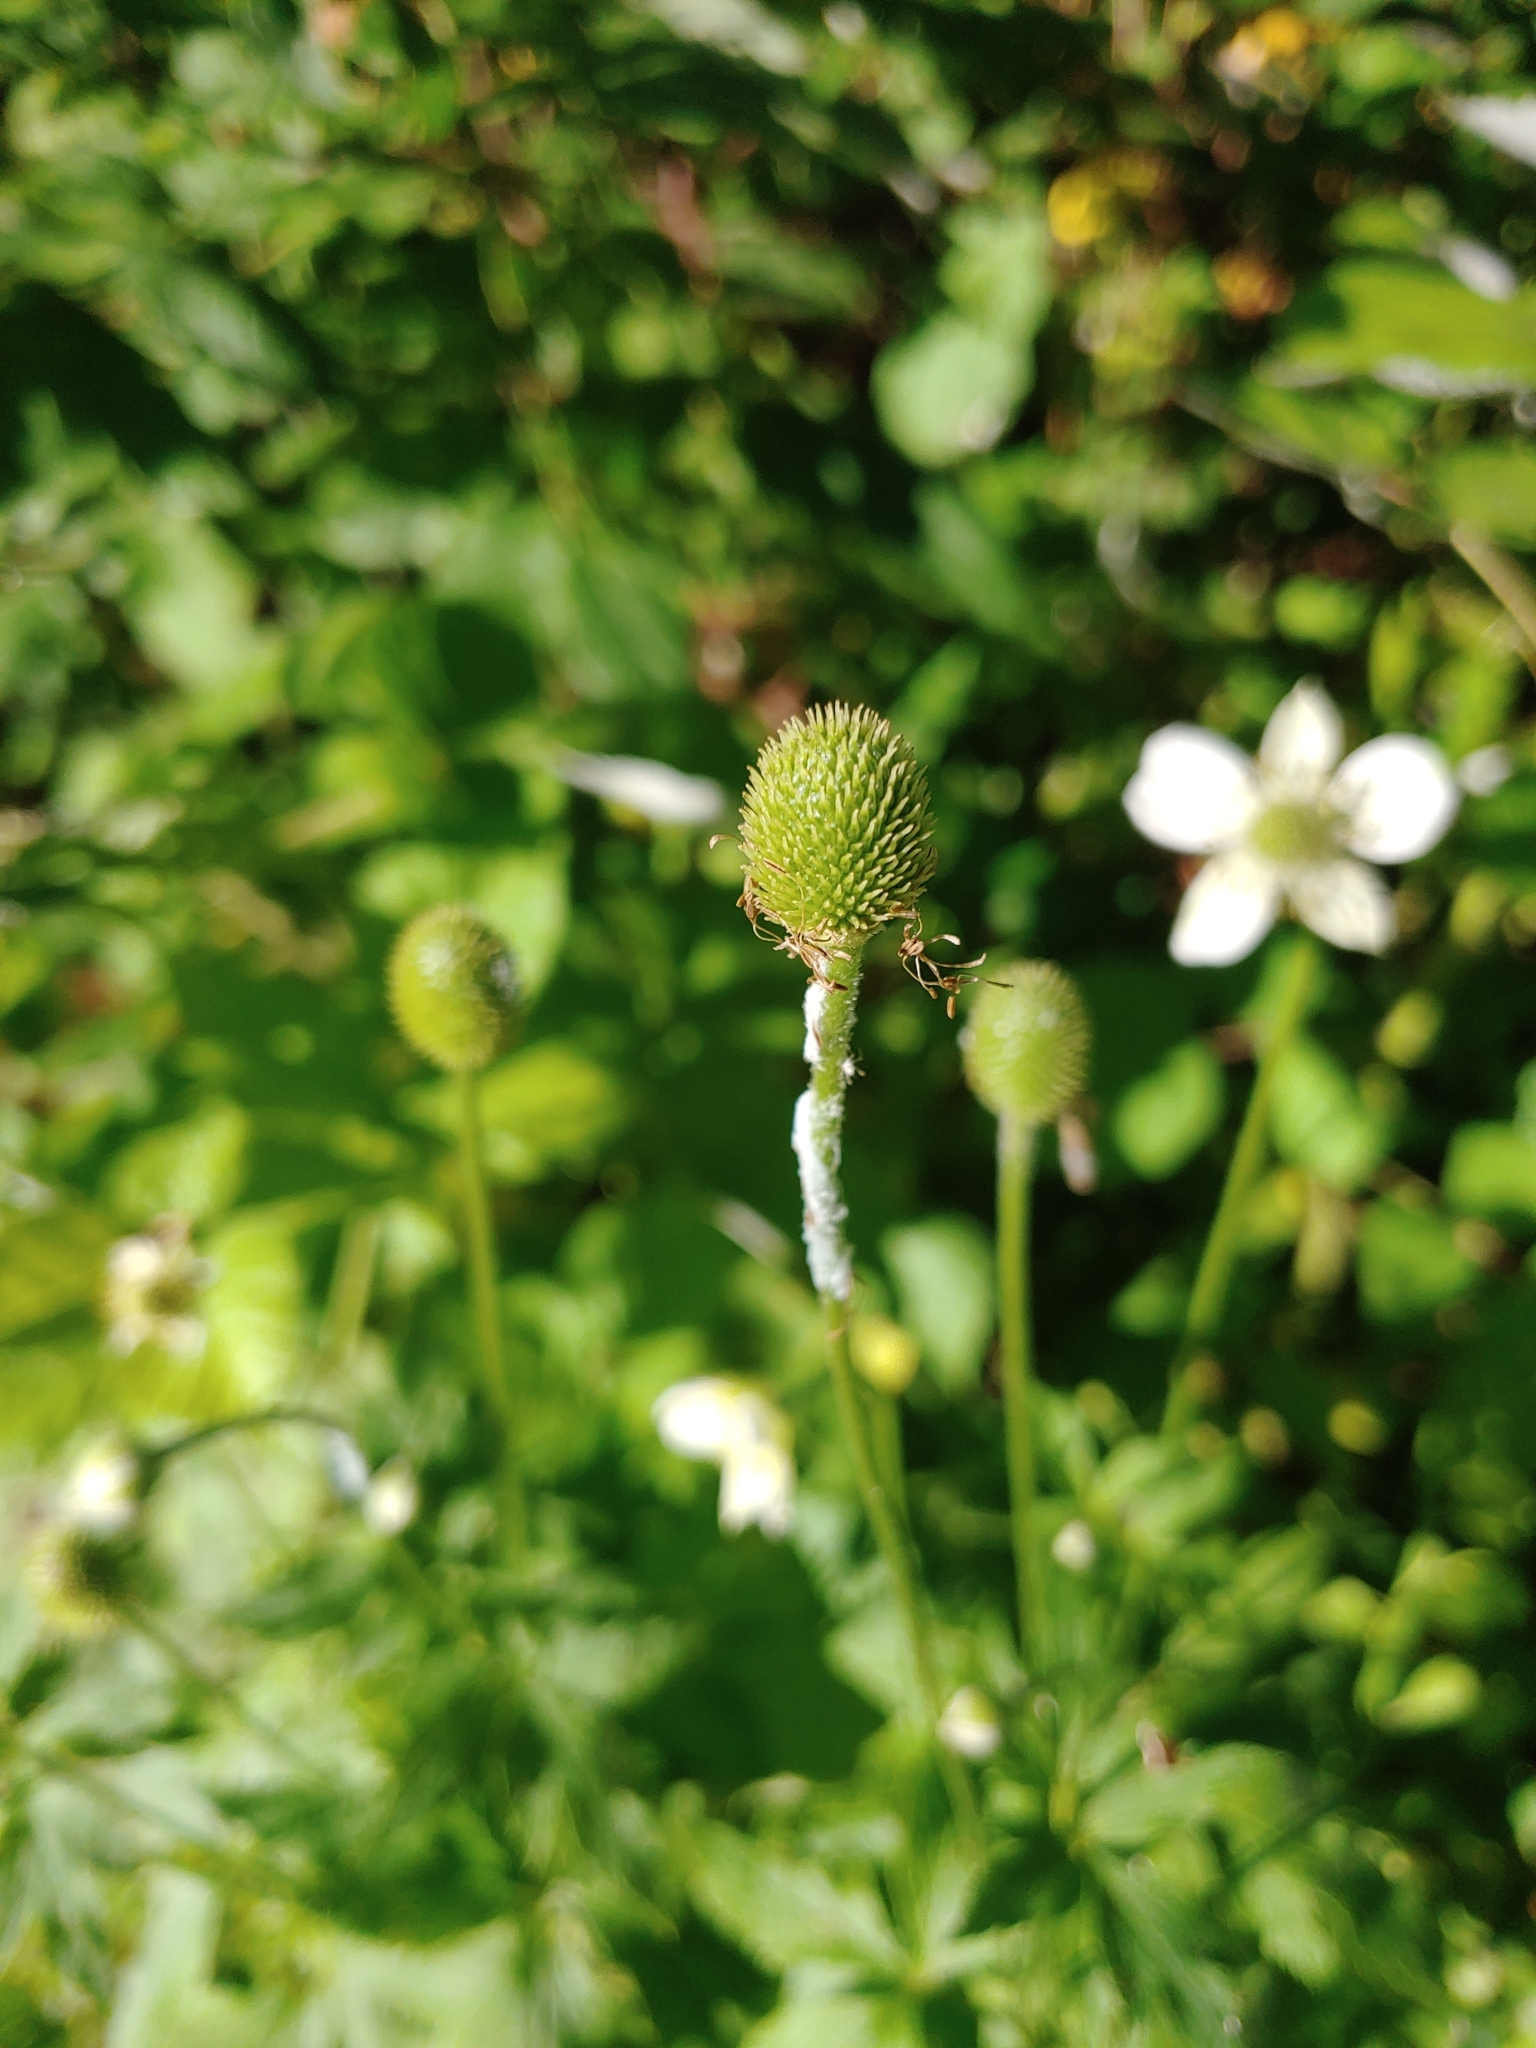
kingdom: Plantae
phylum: Tracheophyta
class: Magnoliopsida
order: Ranunculales
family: Ranunculaceae
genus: Anemone
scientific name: Anemone virginiana
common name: Tall anemone
